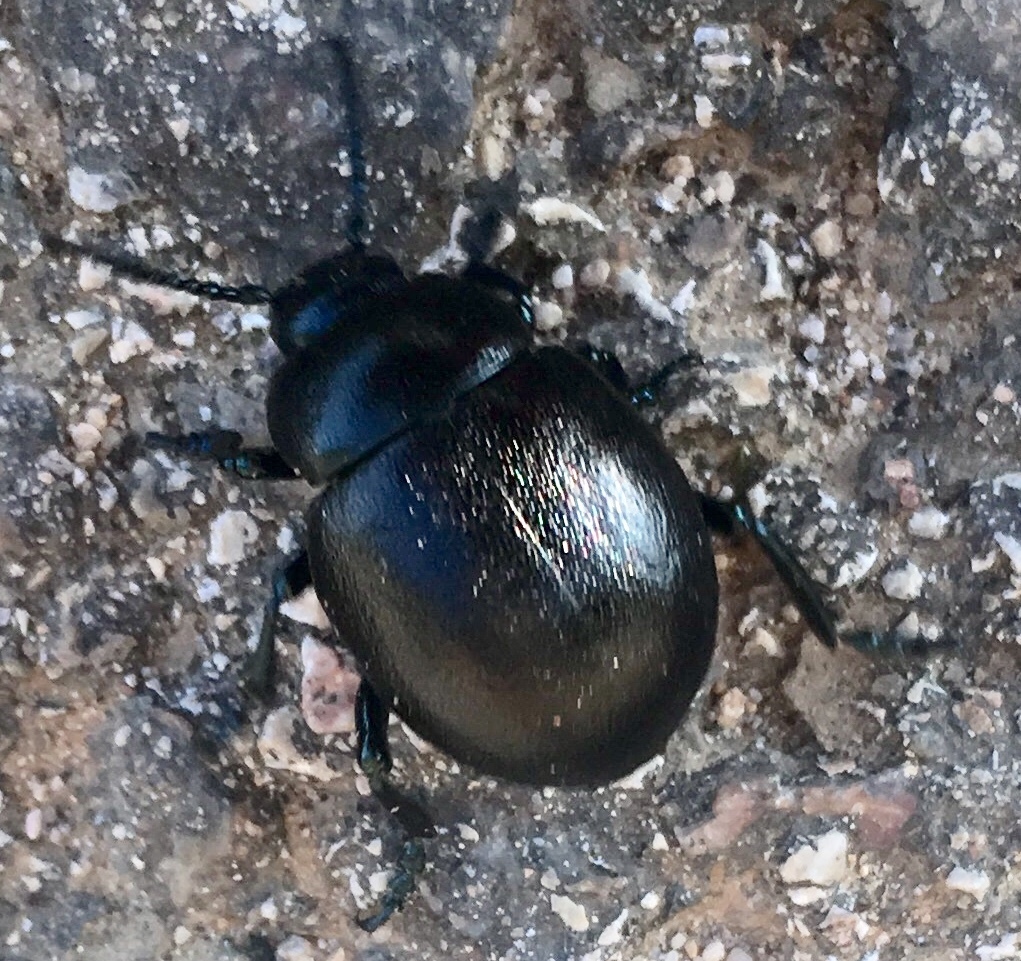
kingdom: Animalia
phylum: Arthropoda
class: Insecta
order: Coleoptera
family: Chrysomelidae
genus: Timarcha
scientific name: Timarcha goettingensis
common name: Small bloody-nosed beetle
